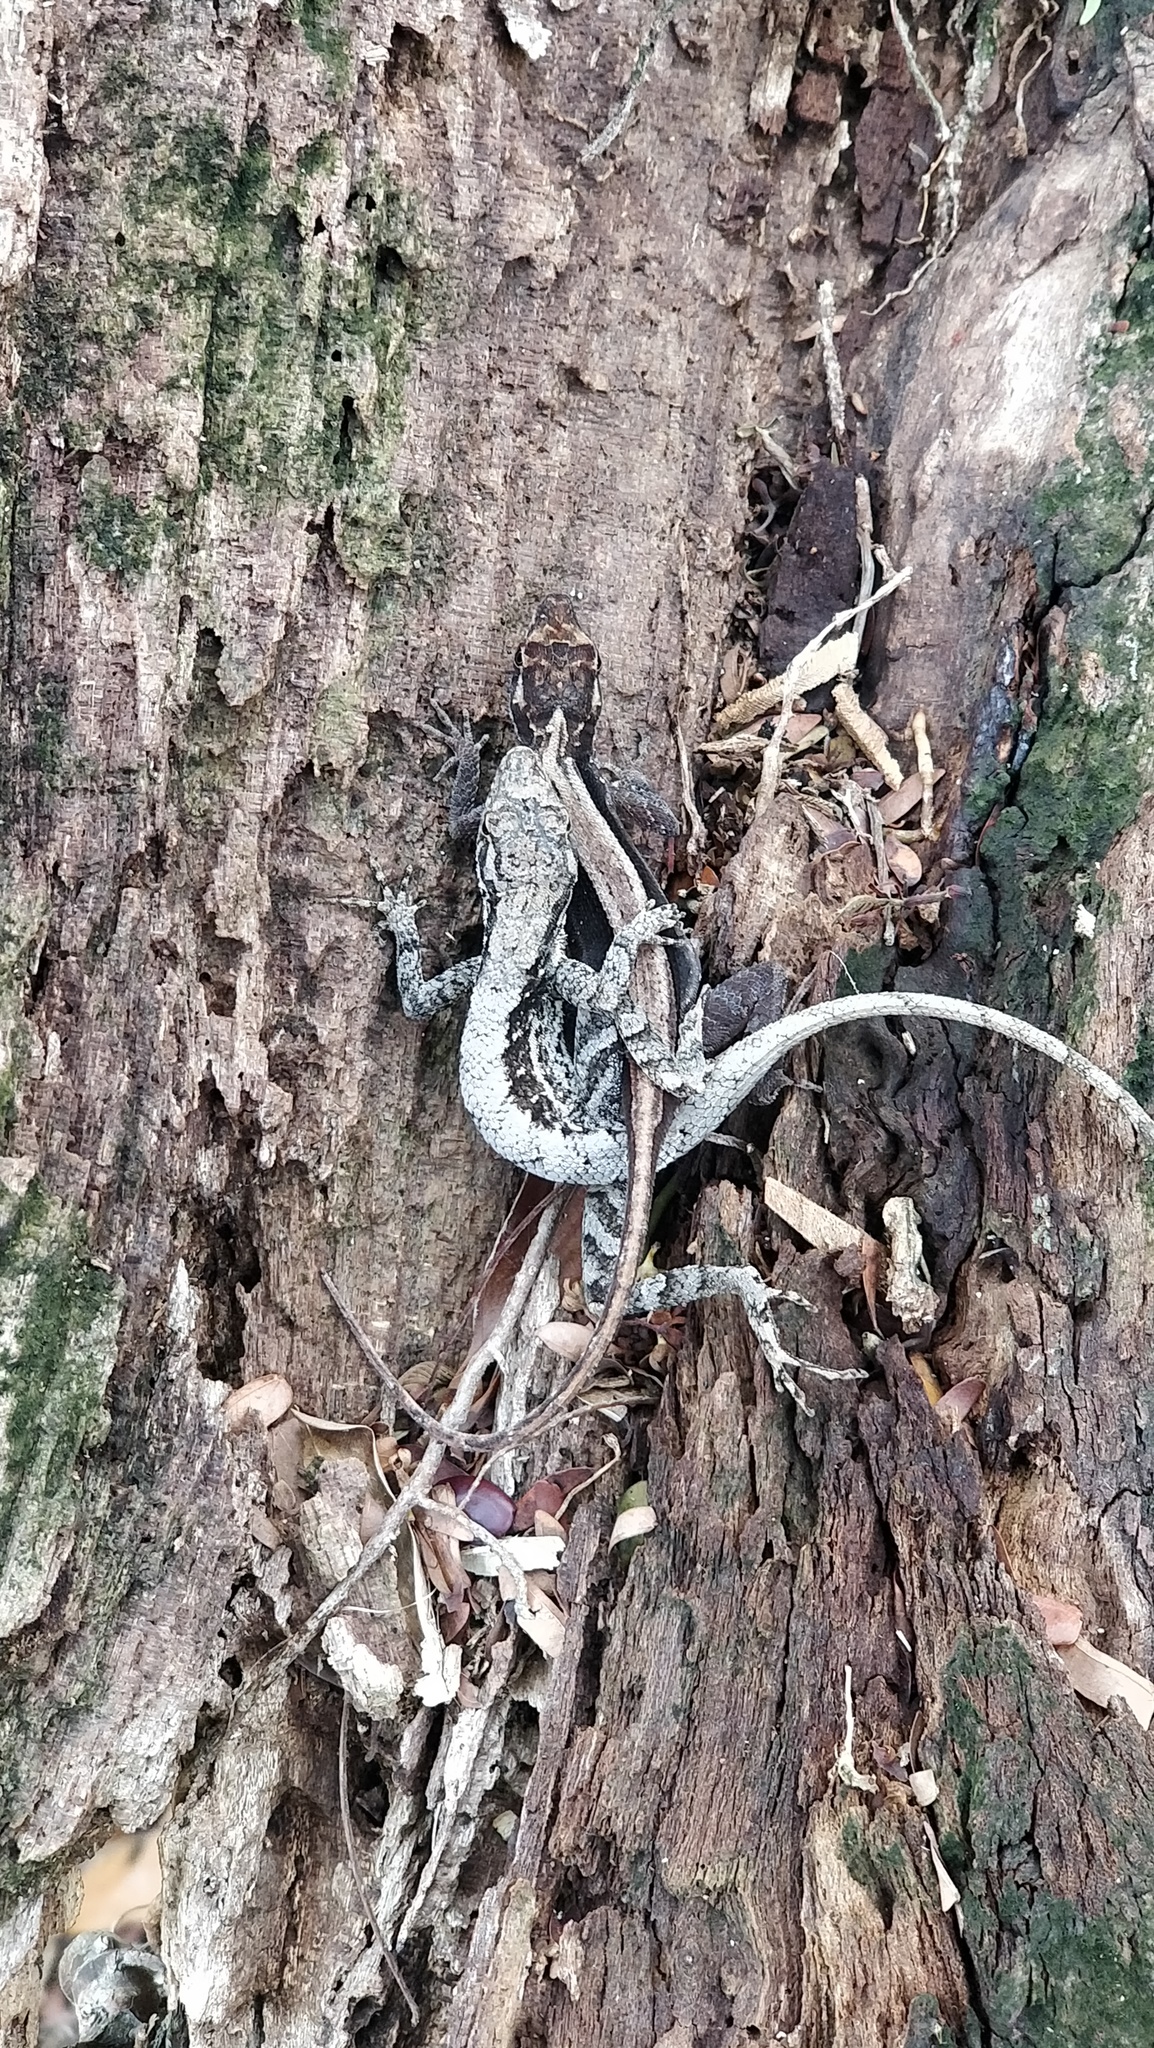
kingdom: Animalia
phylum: Chordata
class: Squamata
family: Dactyloidae
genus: Anolis
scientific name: Anolis mccraniei
